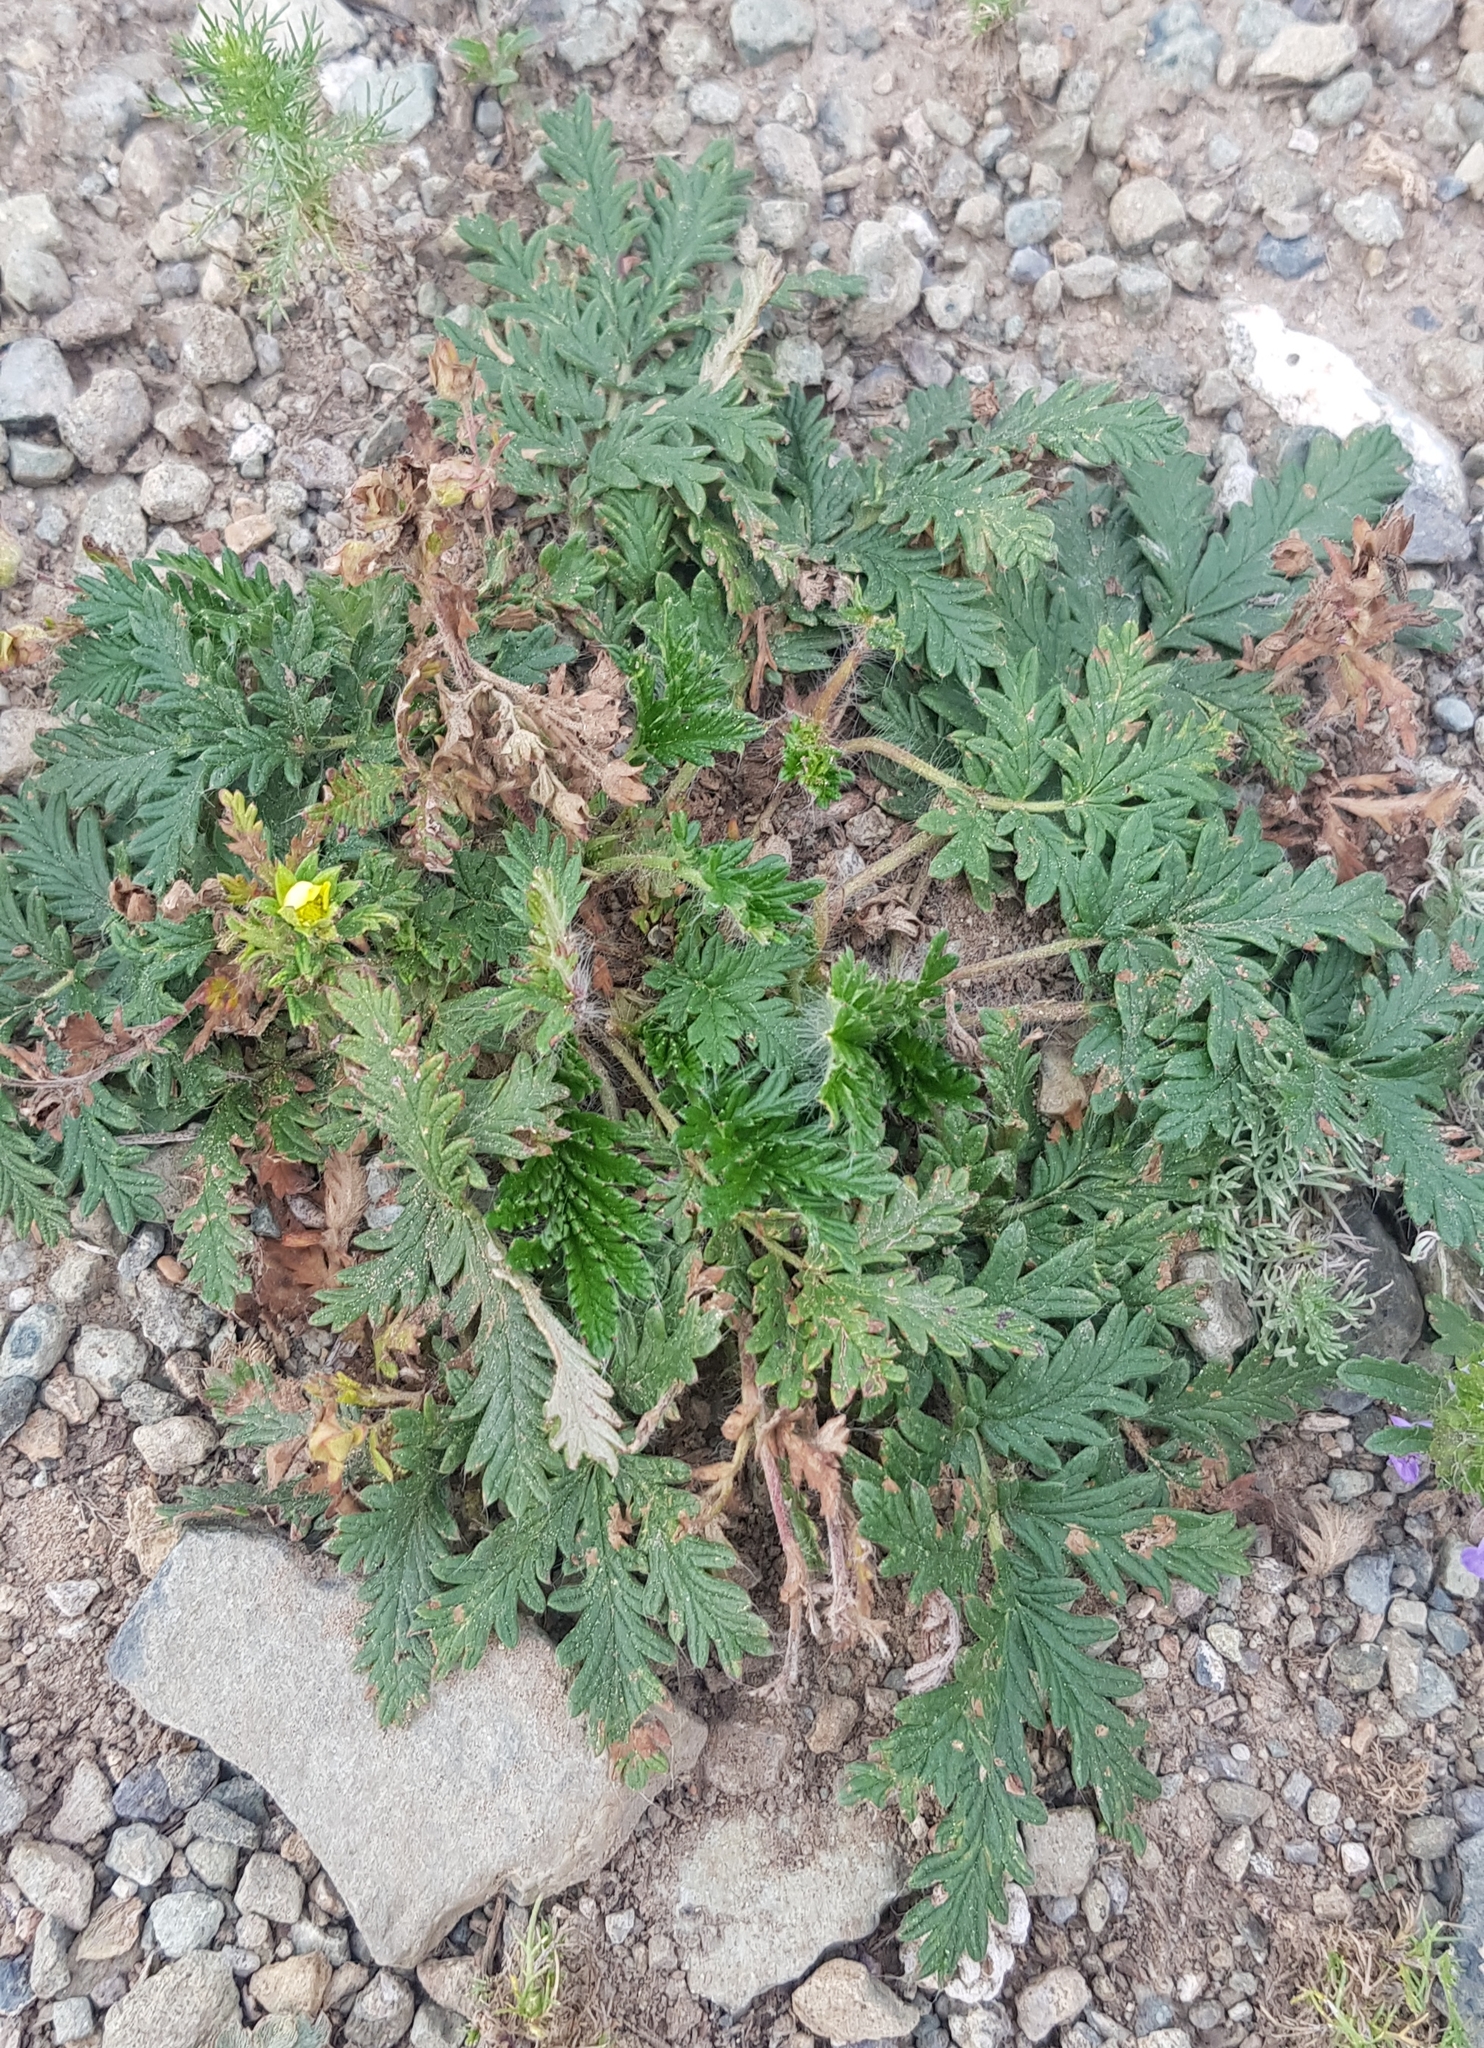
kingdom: Plantae
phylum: Tracheophyta
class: Magnoliopsida
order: Rosales
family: Rosaceae
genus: Potentilla
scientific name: Potentilla longifolia
